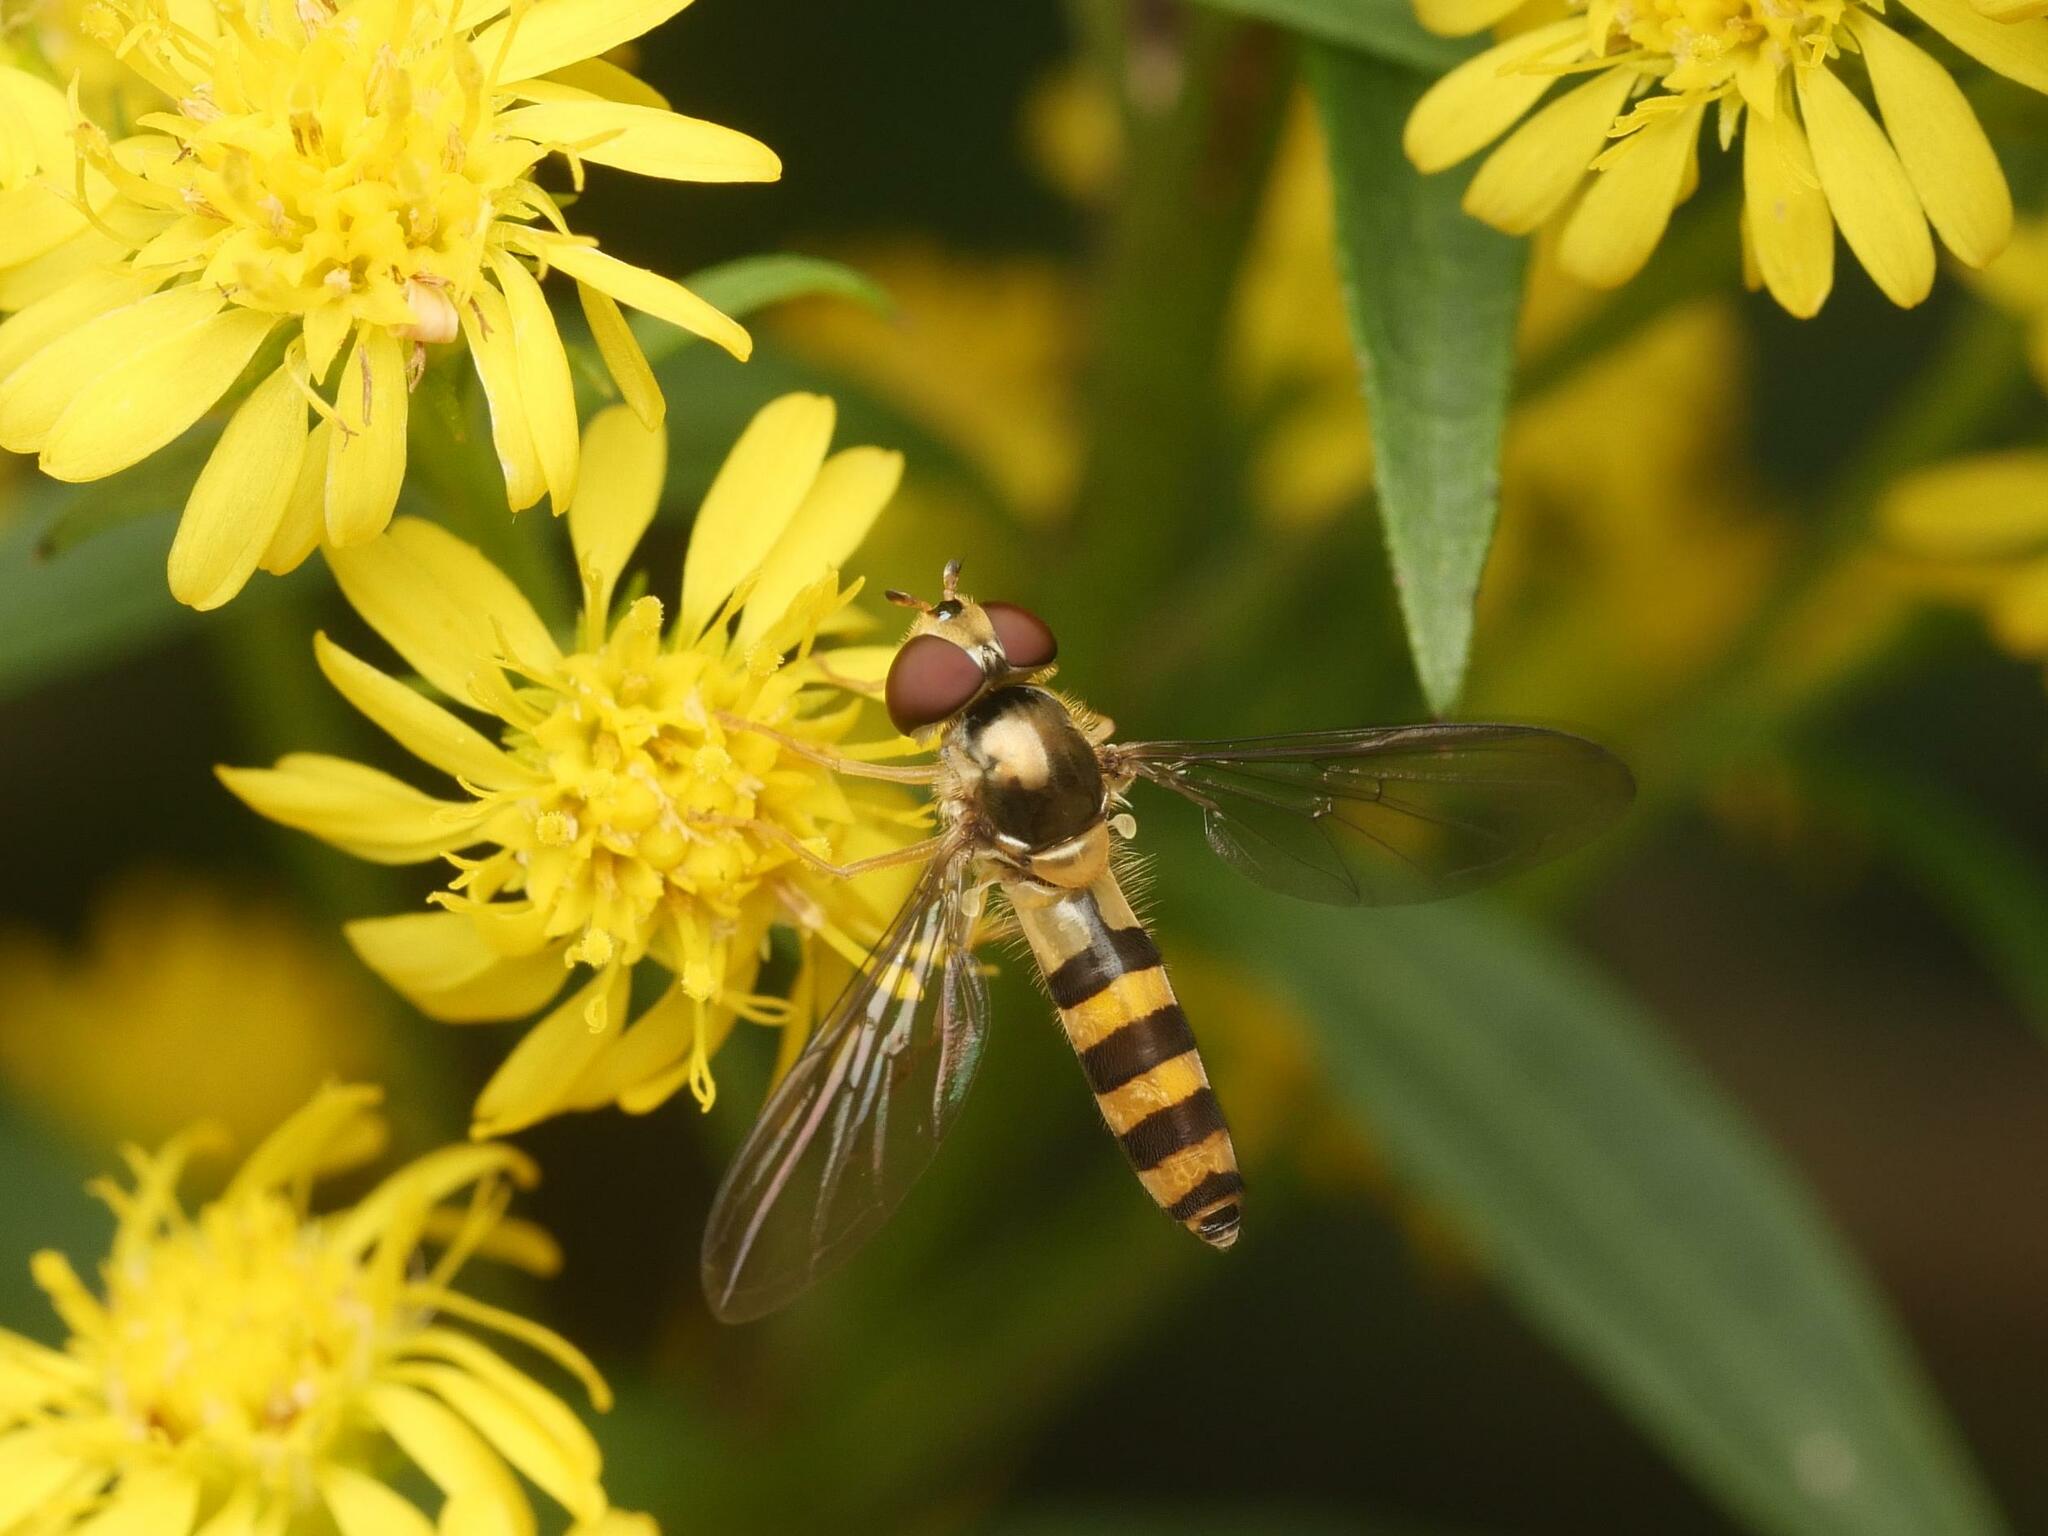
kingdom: Animalia
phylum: Arthropoda
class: Insecta
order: Diptera
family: Syrphidae
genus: Meliscaeva
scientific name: Meliscaeva cinctella
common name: American thintail fly
